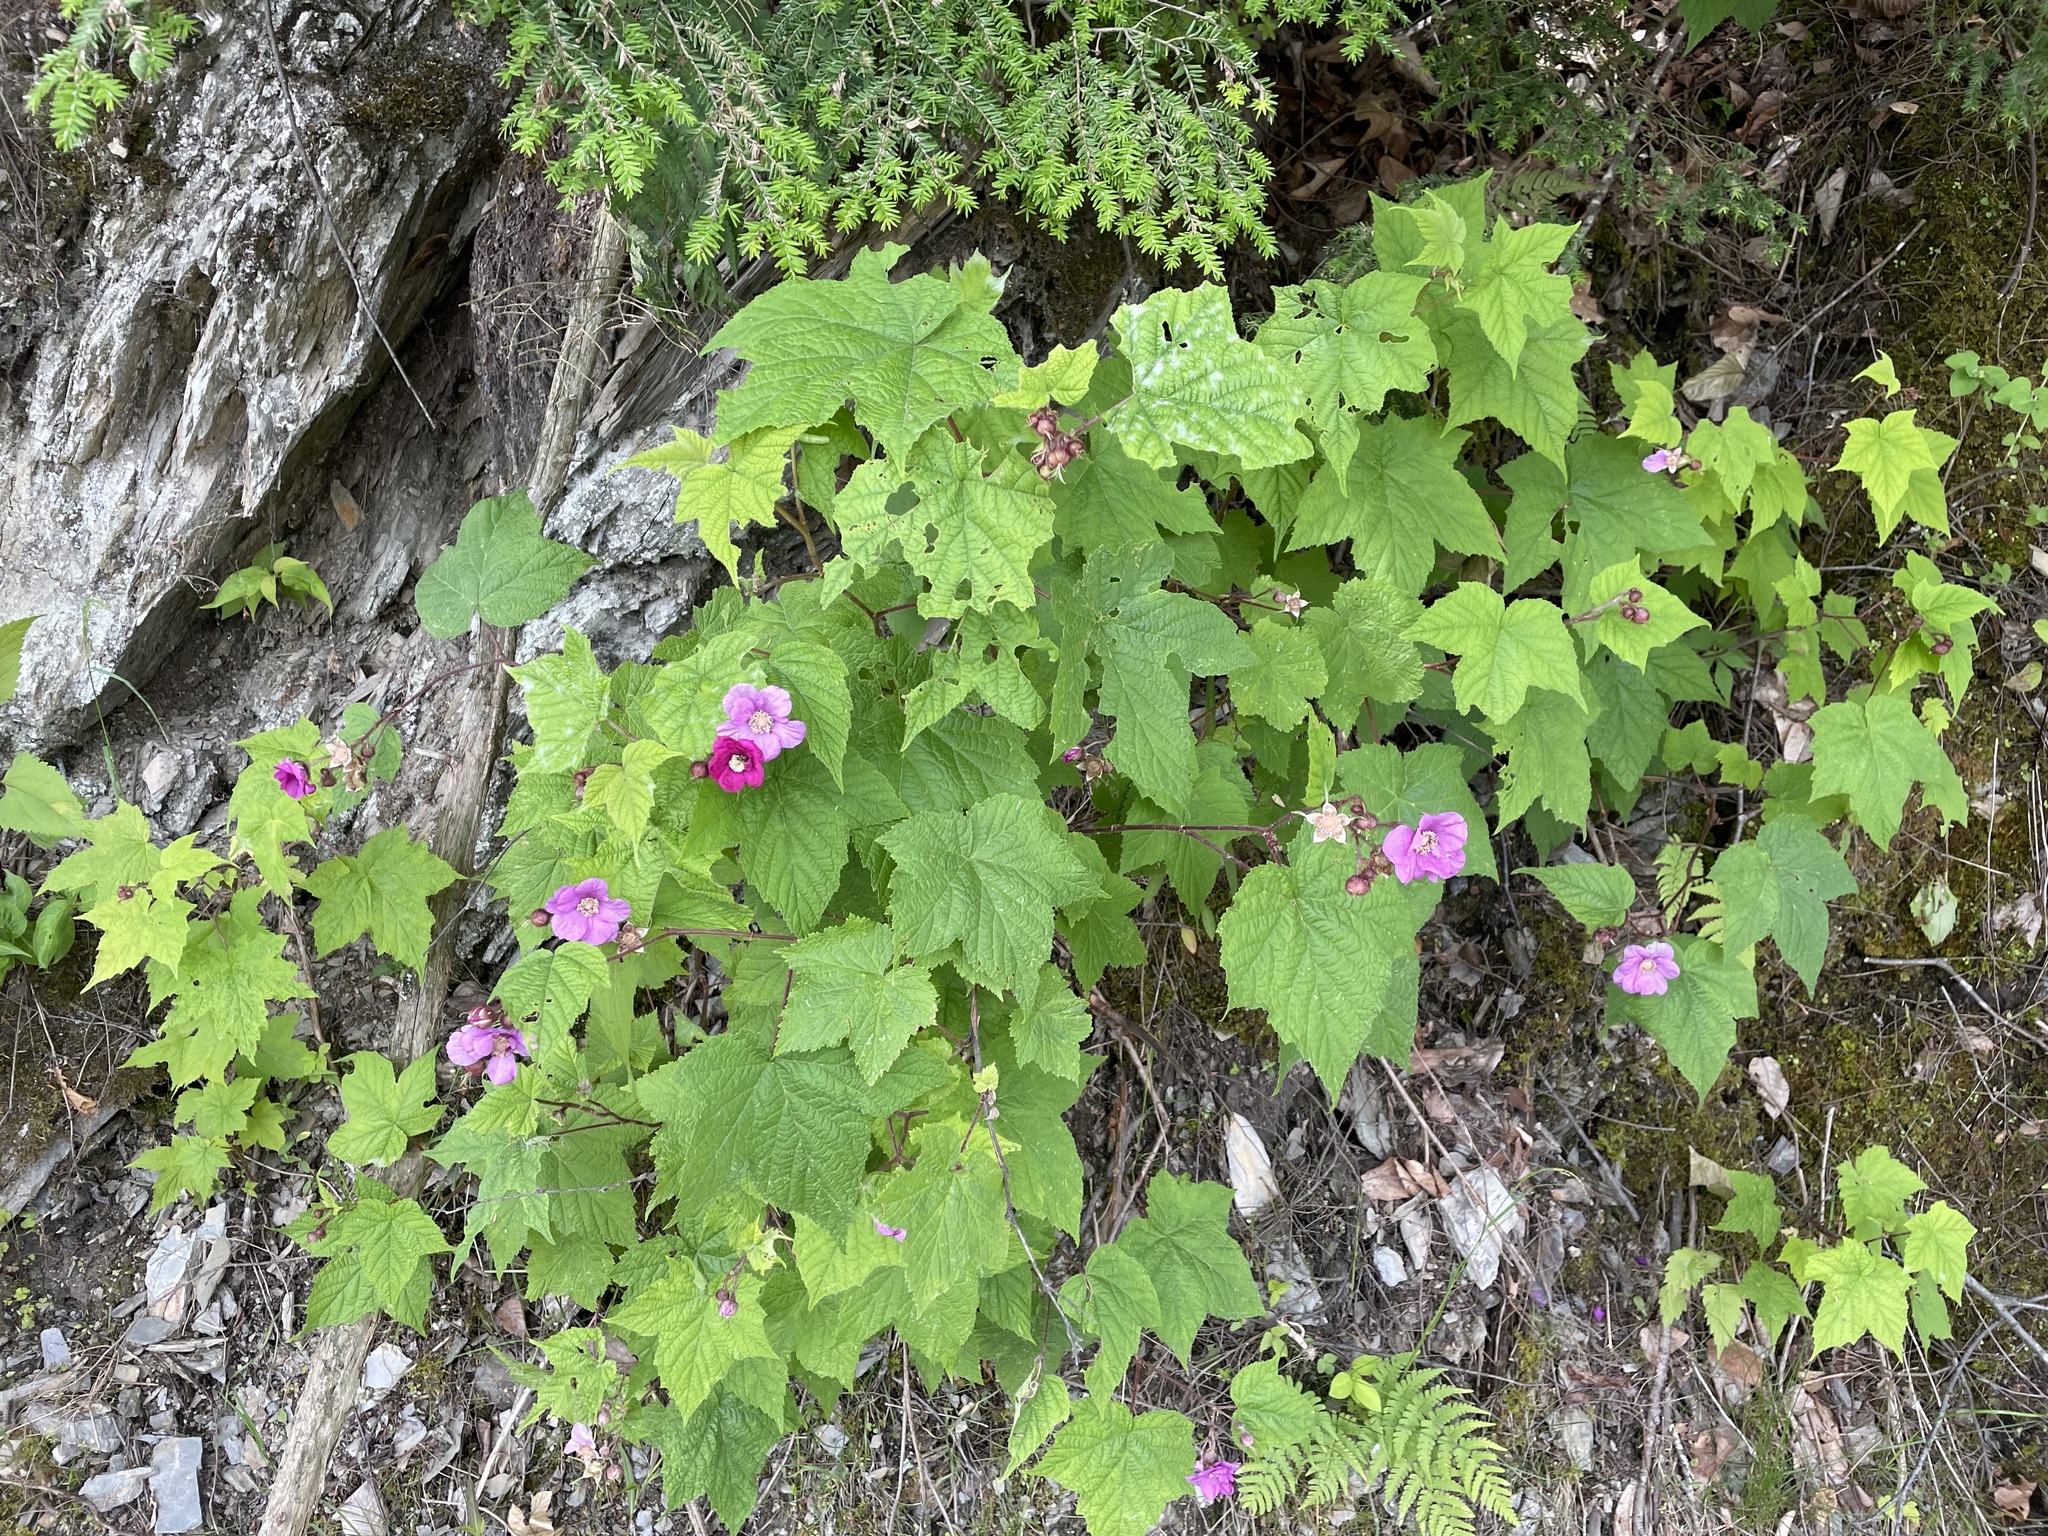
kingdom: Plantae
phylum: Tracheophyta
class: Magnoliopsida
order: Rosales
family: Rosaceae
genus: Rubus
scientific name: Rubus odoratus
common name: Purple-flowered raspberry
